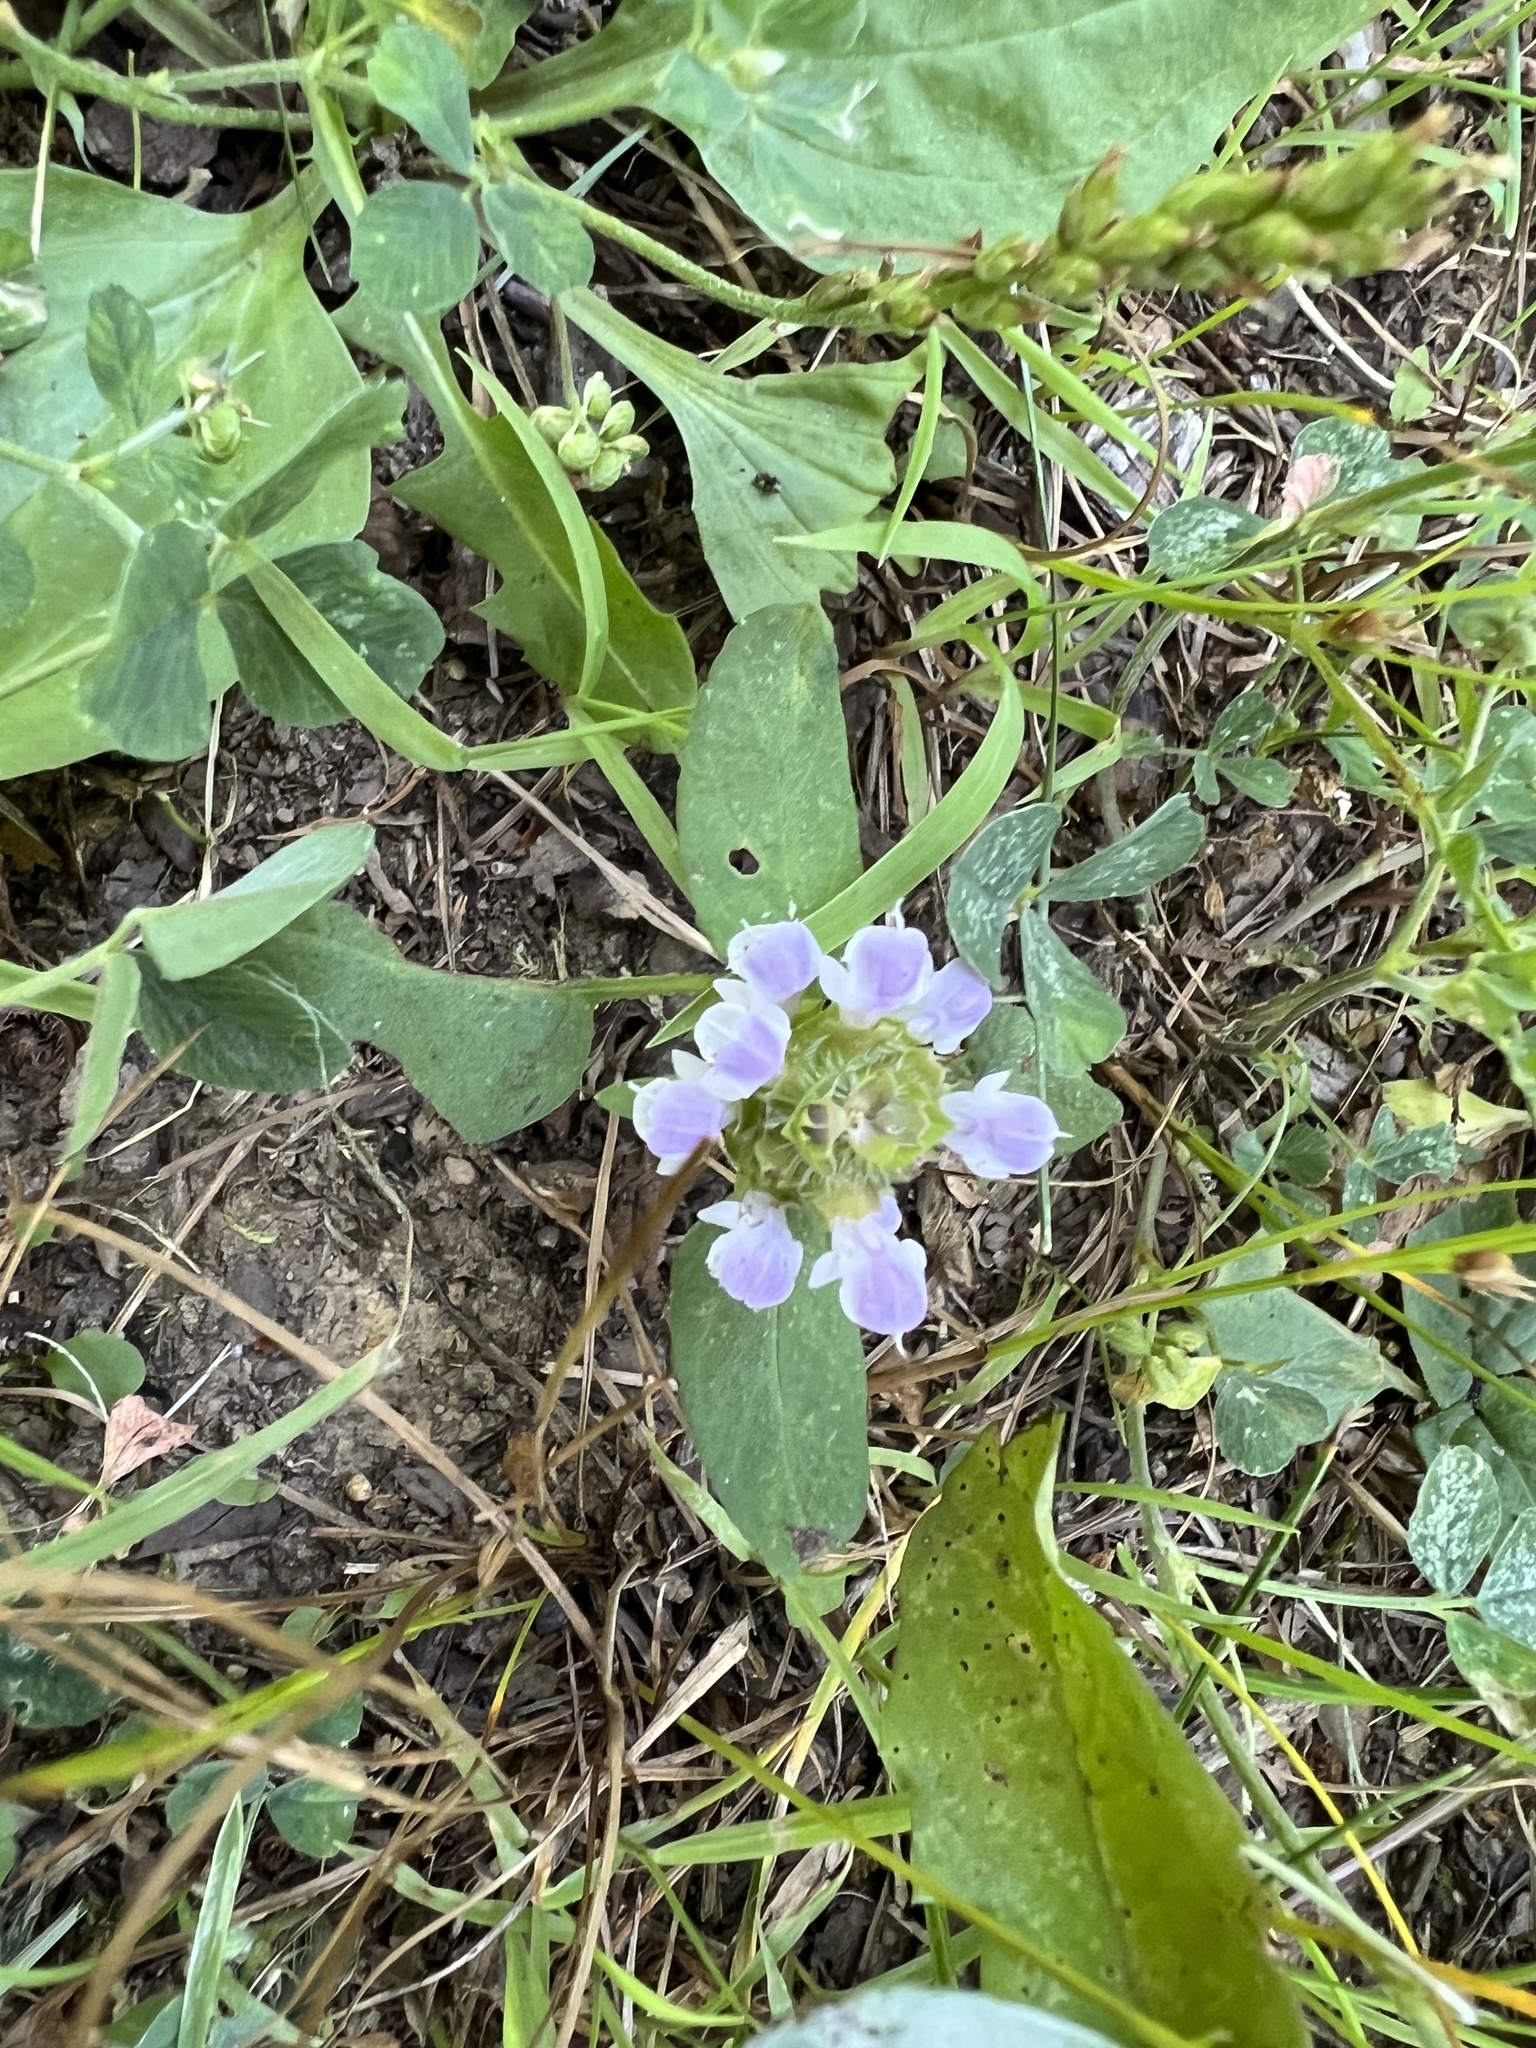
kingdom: Plantae
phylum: Tracheophyta
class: Magnoliopsida
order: Lamiales
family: Lamiaceae
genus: Prunella
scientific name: Prunella vulgaris
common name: Heal-all
